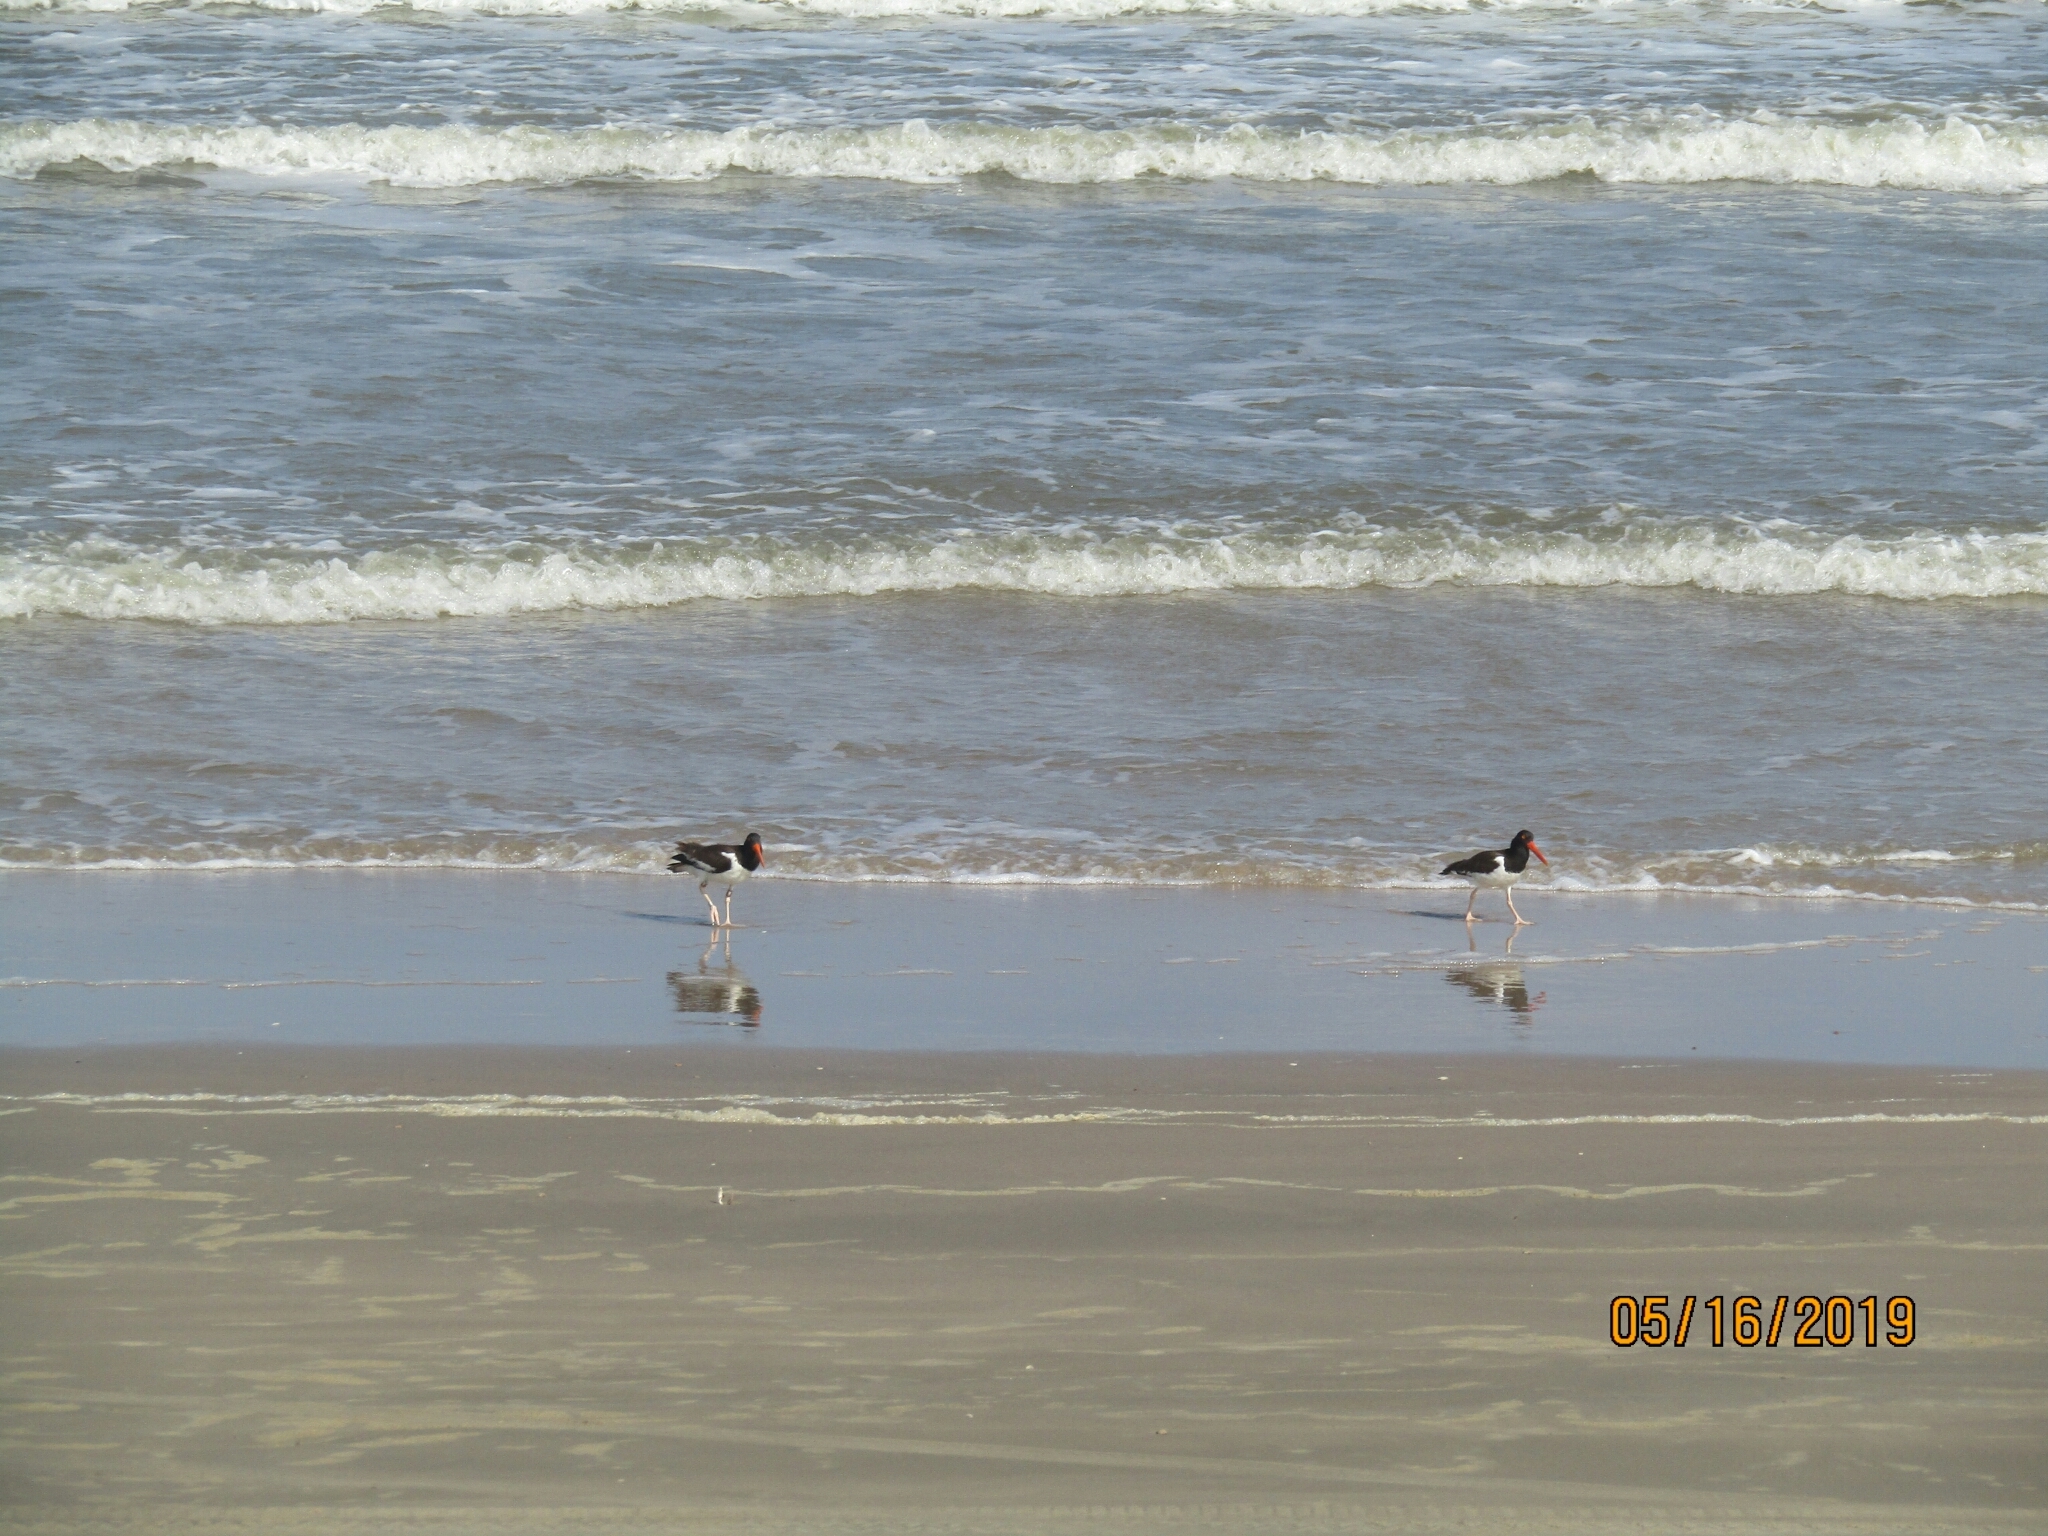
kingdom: Animalia
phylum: Chordata
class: Aves
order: Charadriiformes
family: Haematopodidae
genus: Haematopus
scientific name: Haematopus palliatus
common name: American oystercatcher
